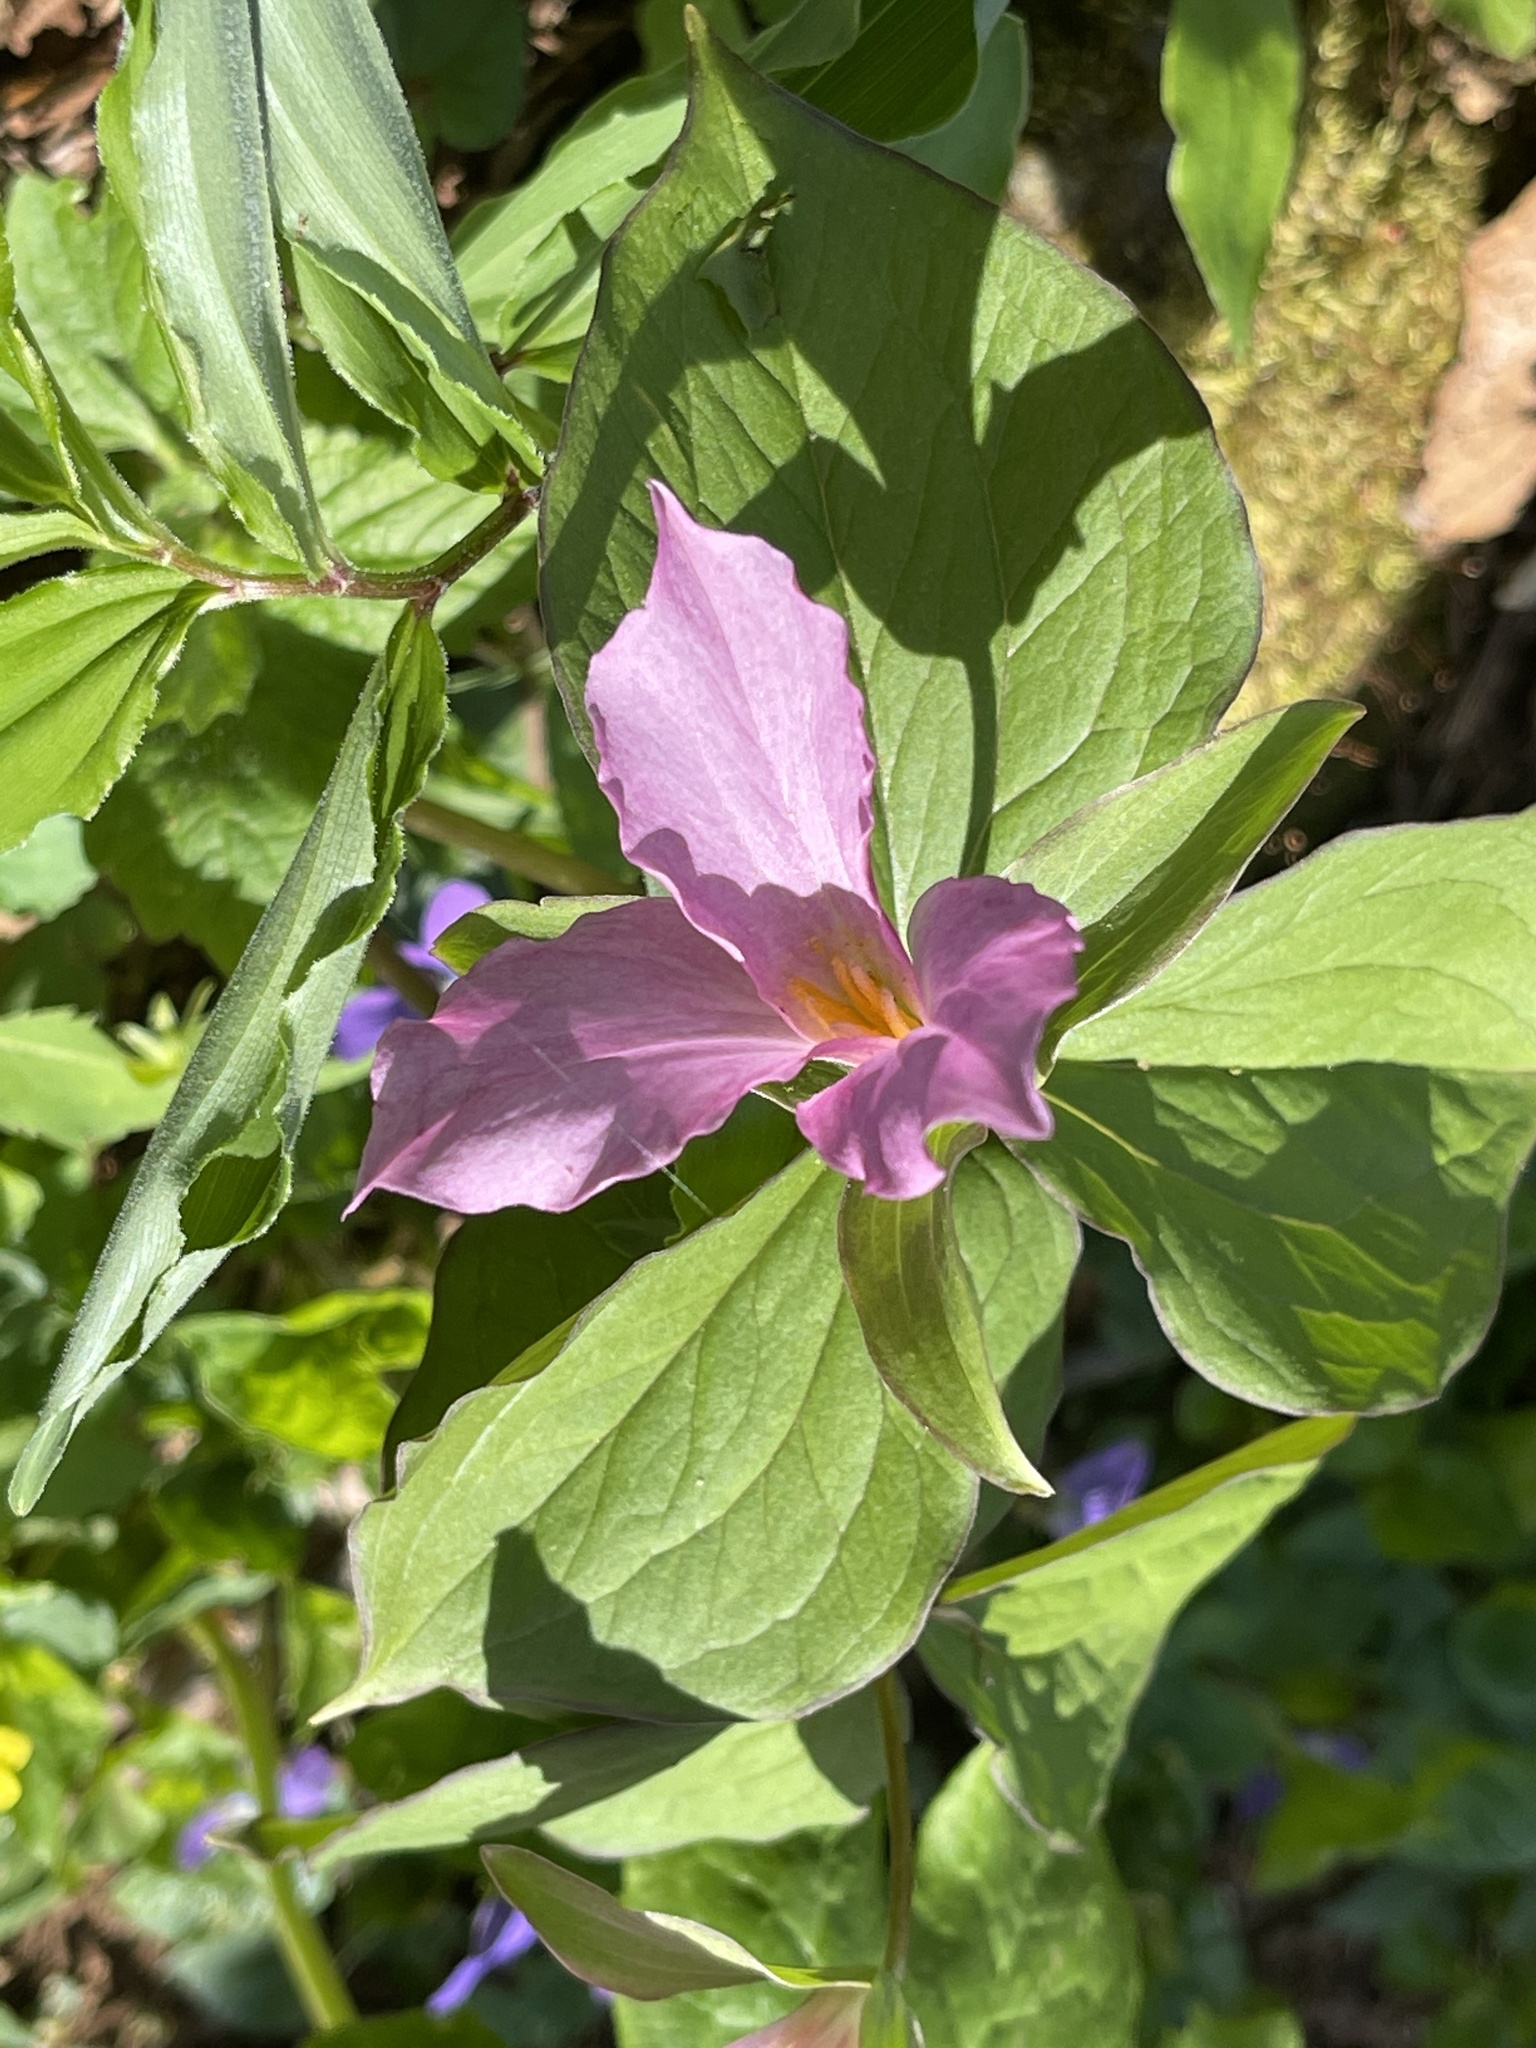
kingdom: Plantae
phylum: Tracheophyta
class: Liliopsida
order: Liliales
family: Melanthiaceae
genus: Trillium
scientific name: Trillium grandiflorum
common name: Great white trillium
